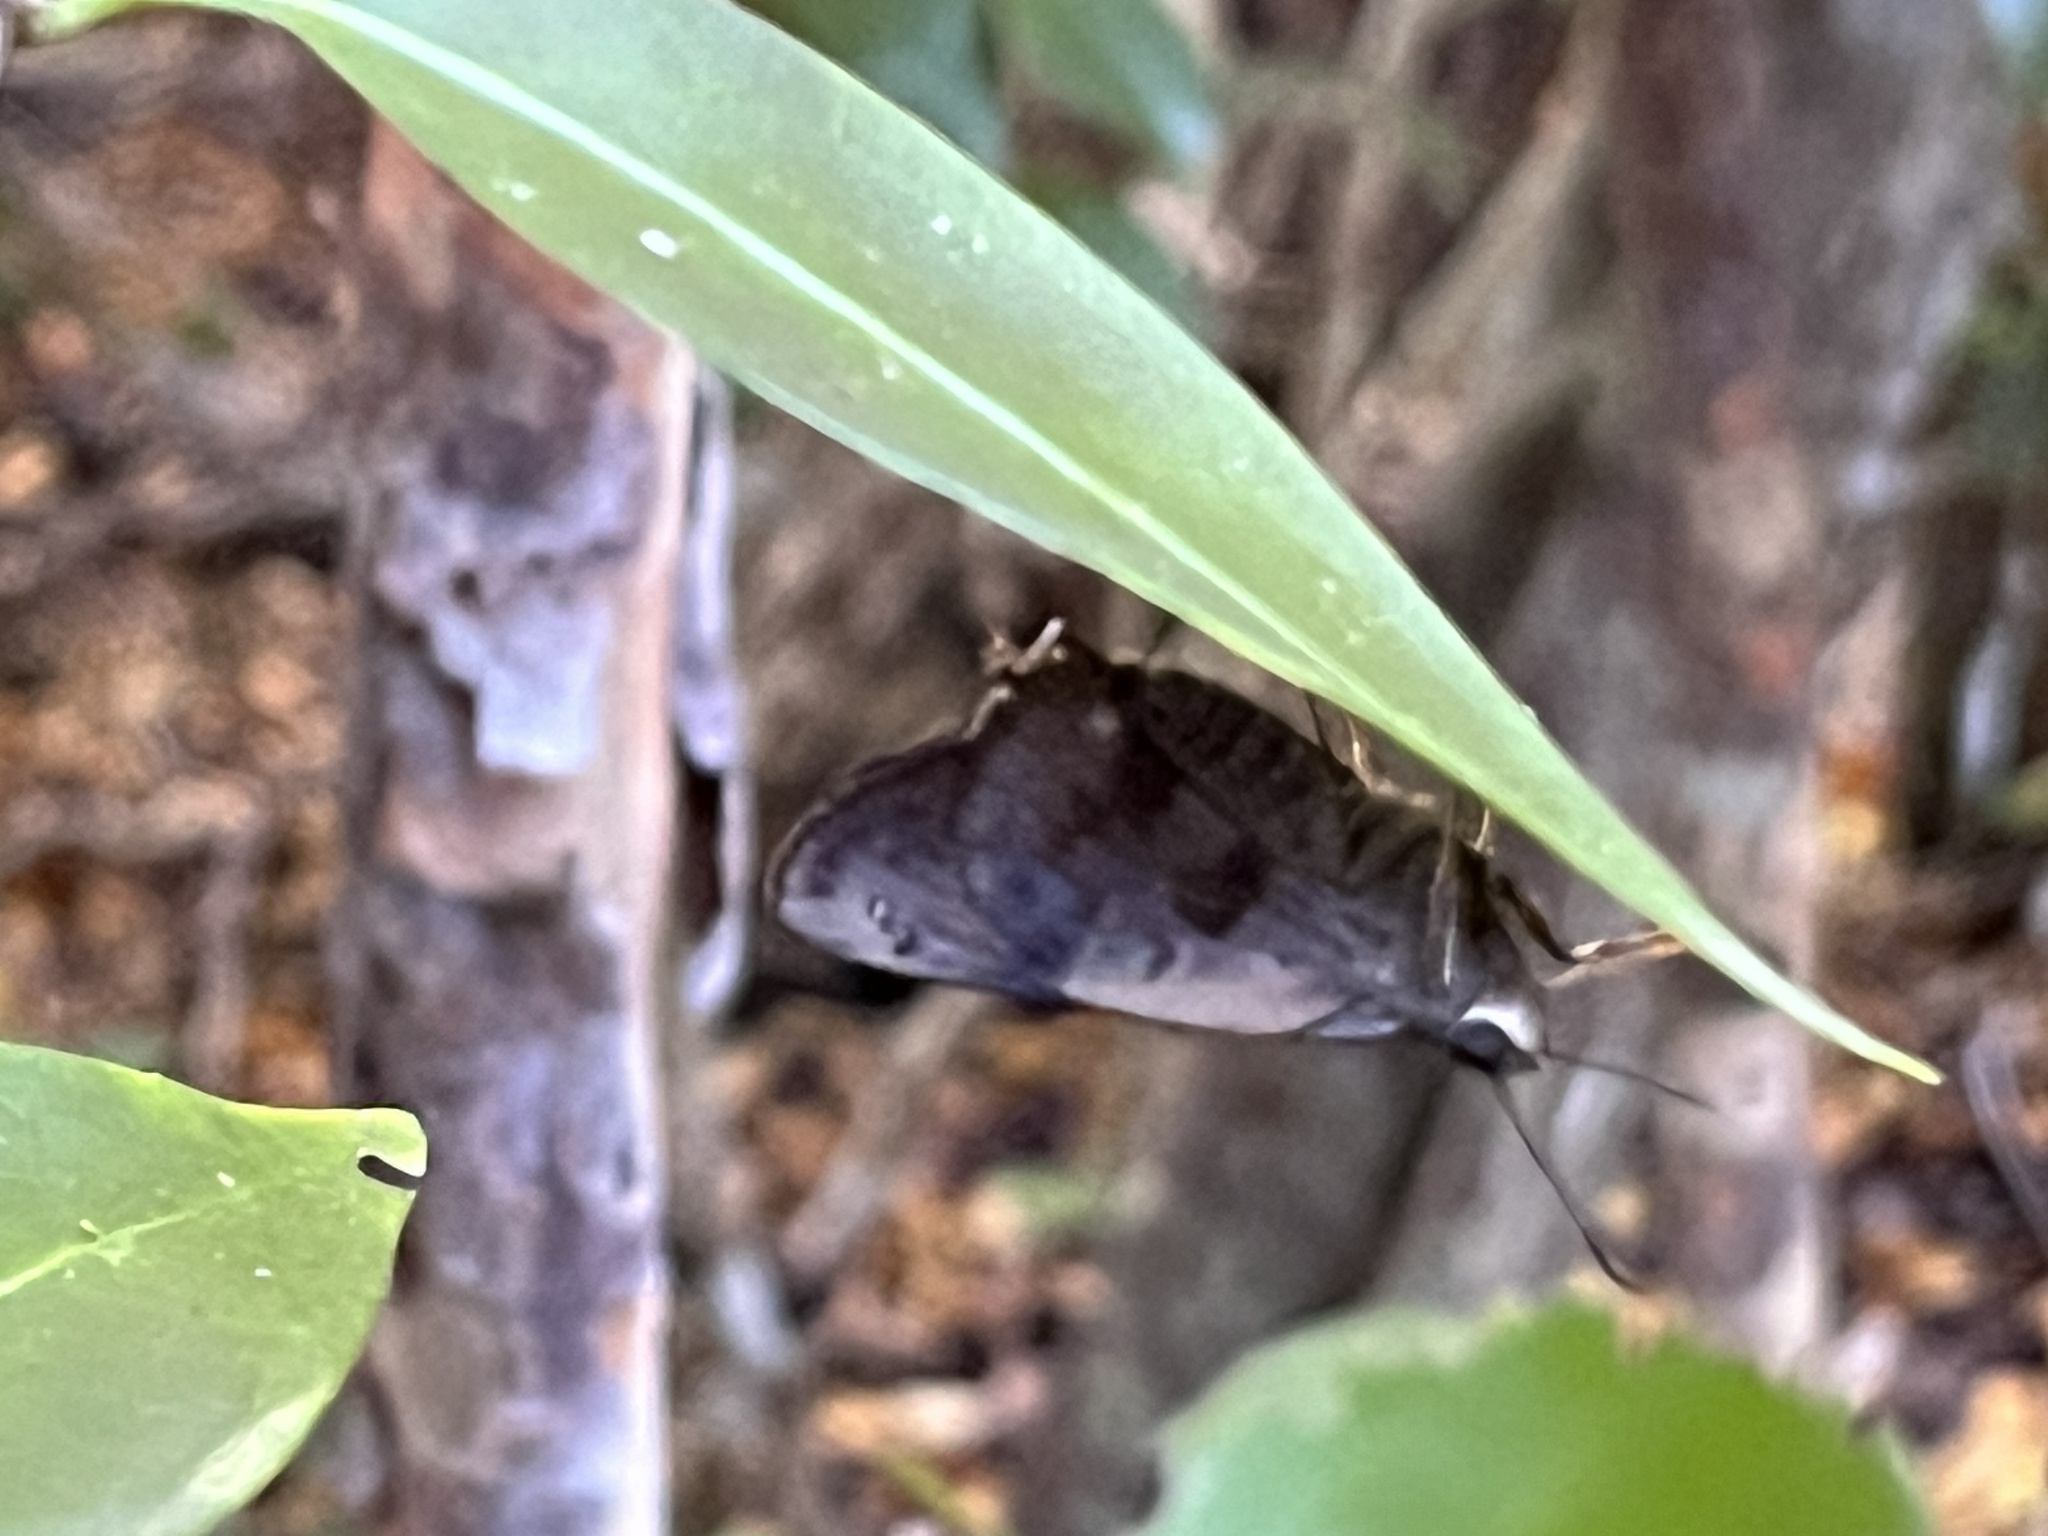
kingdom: Animalia
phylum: Arthropoda
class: Insecta
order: Lepidoptera
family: Hesperiidae
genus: Polygonus
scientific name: Polygonus leo
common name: Hammoch skipper
